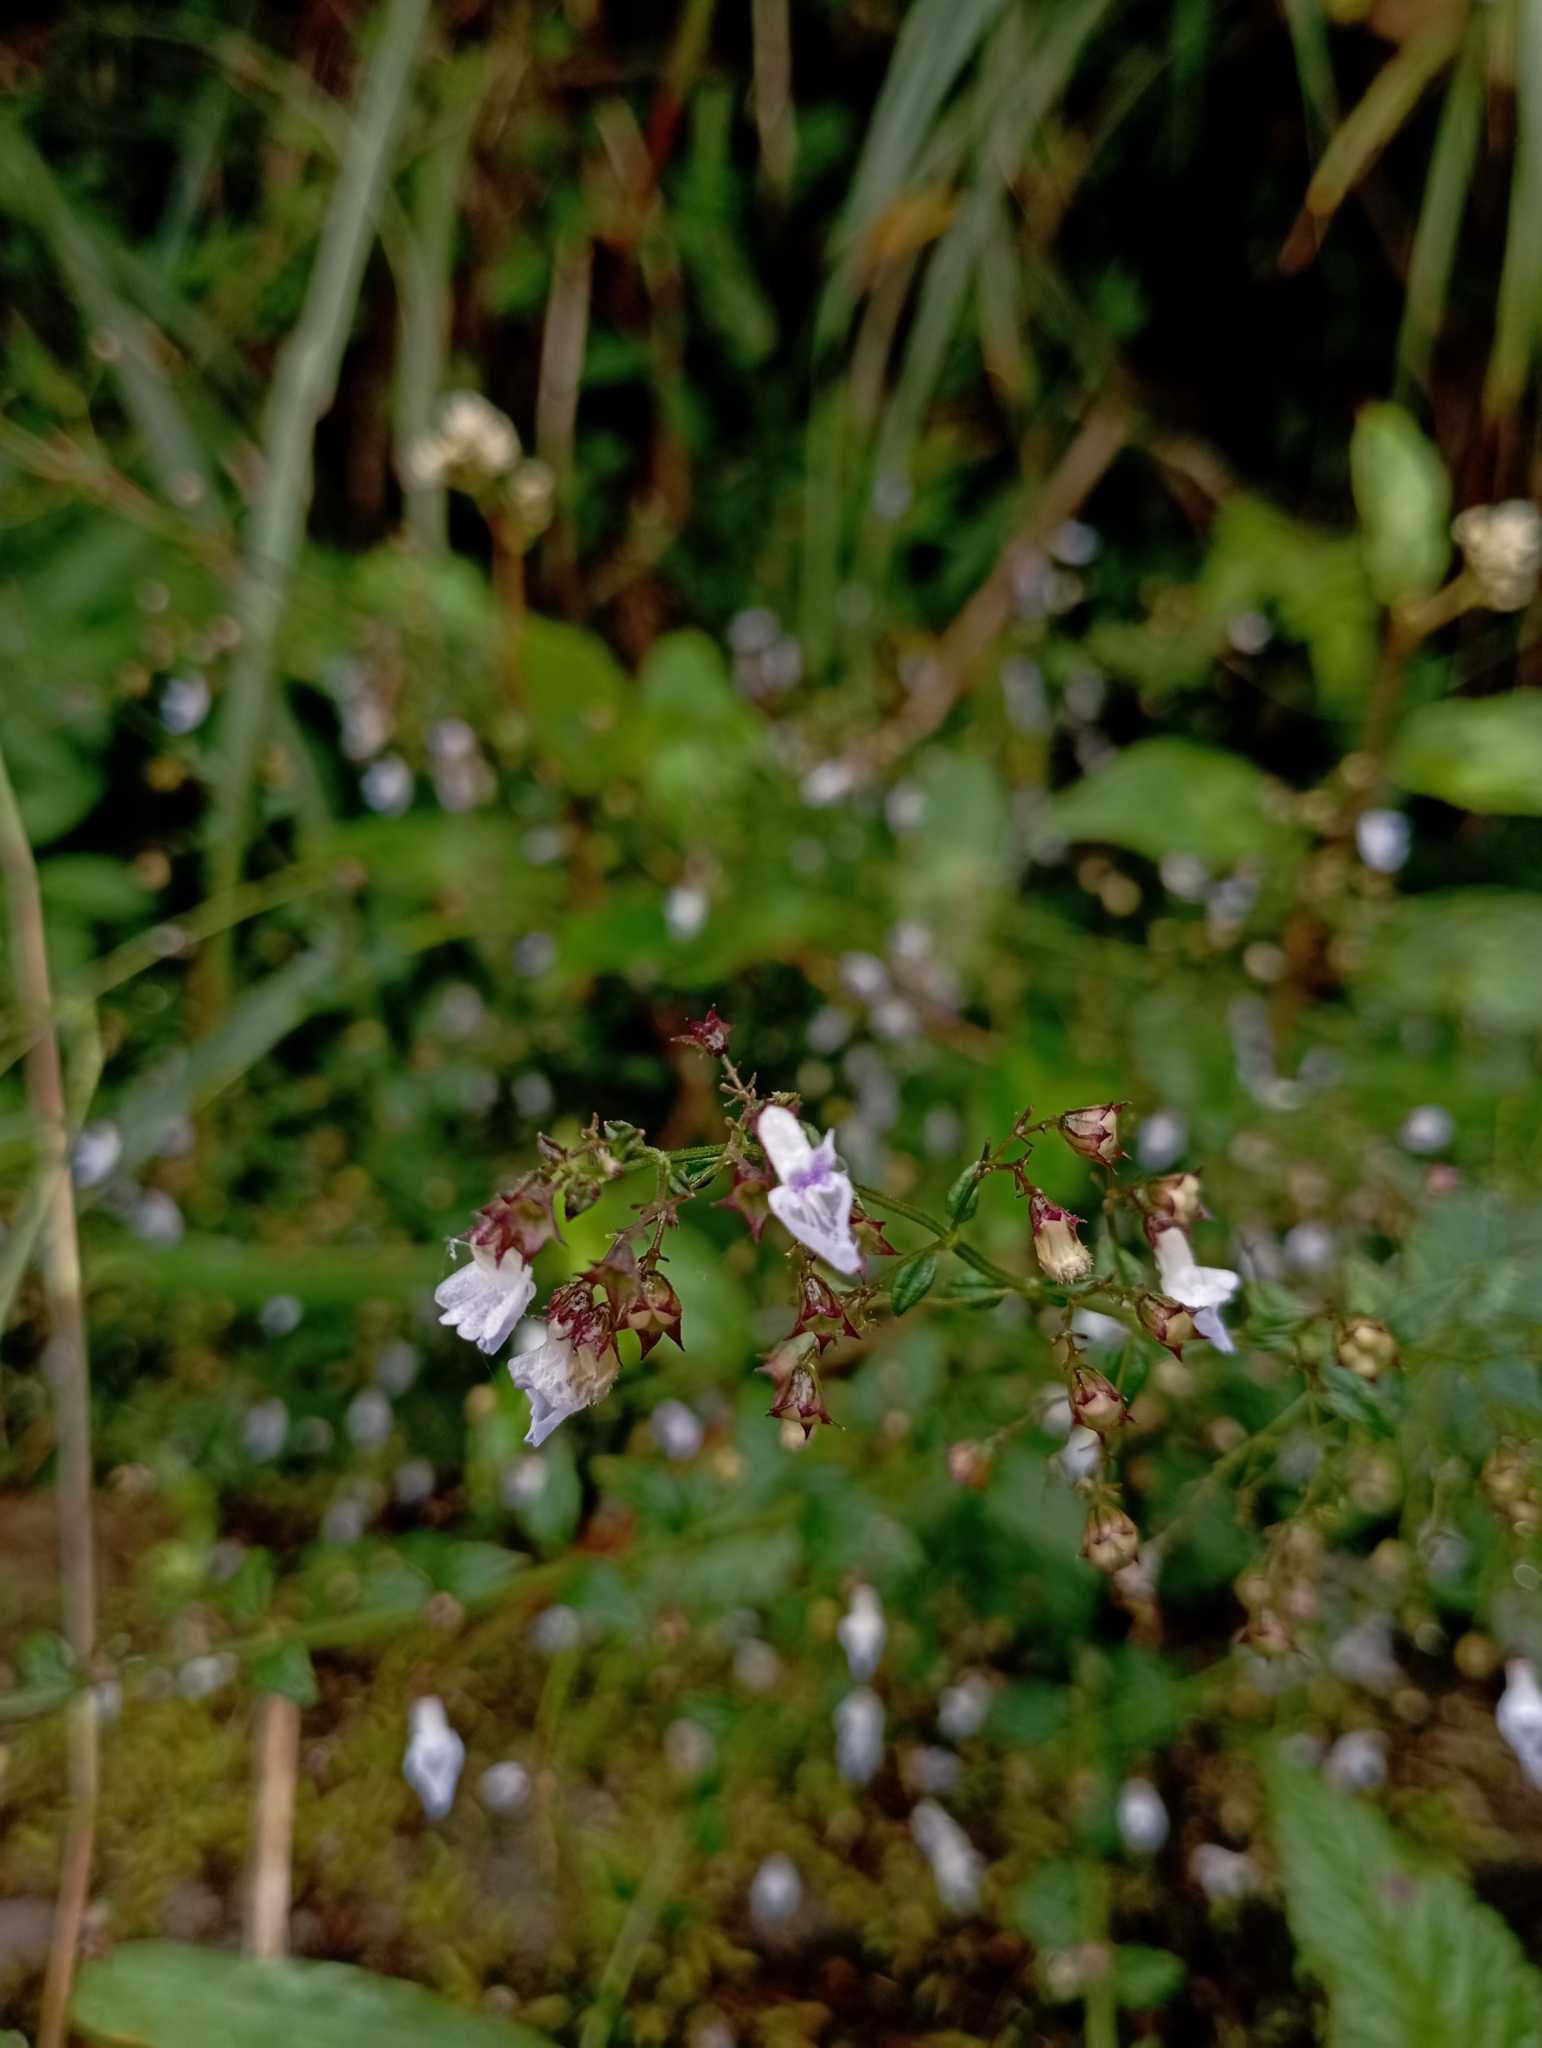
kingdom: Plantae
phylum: Tracheophyta
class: Magnoliopsida
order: Lamiales
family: Lamiaceae
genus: Isodon
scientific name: Isodon amethystoides
